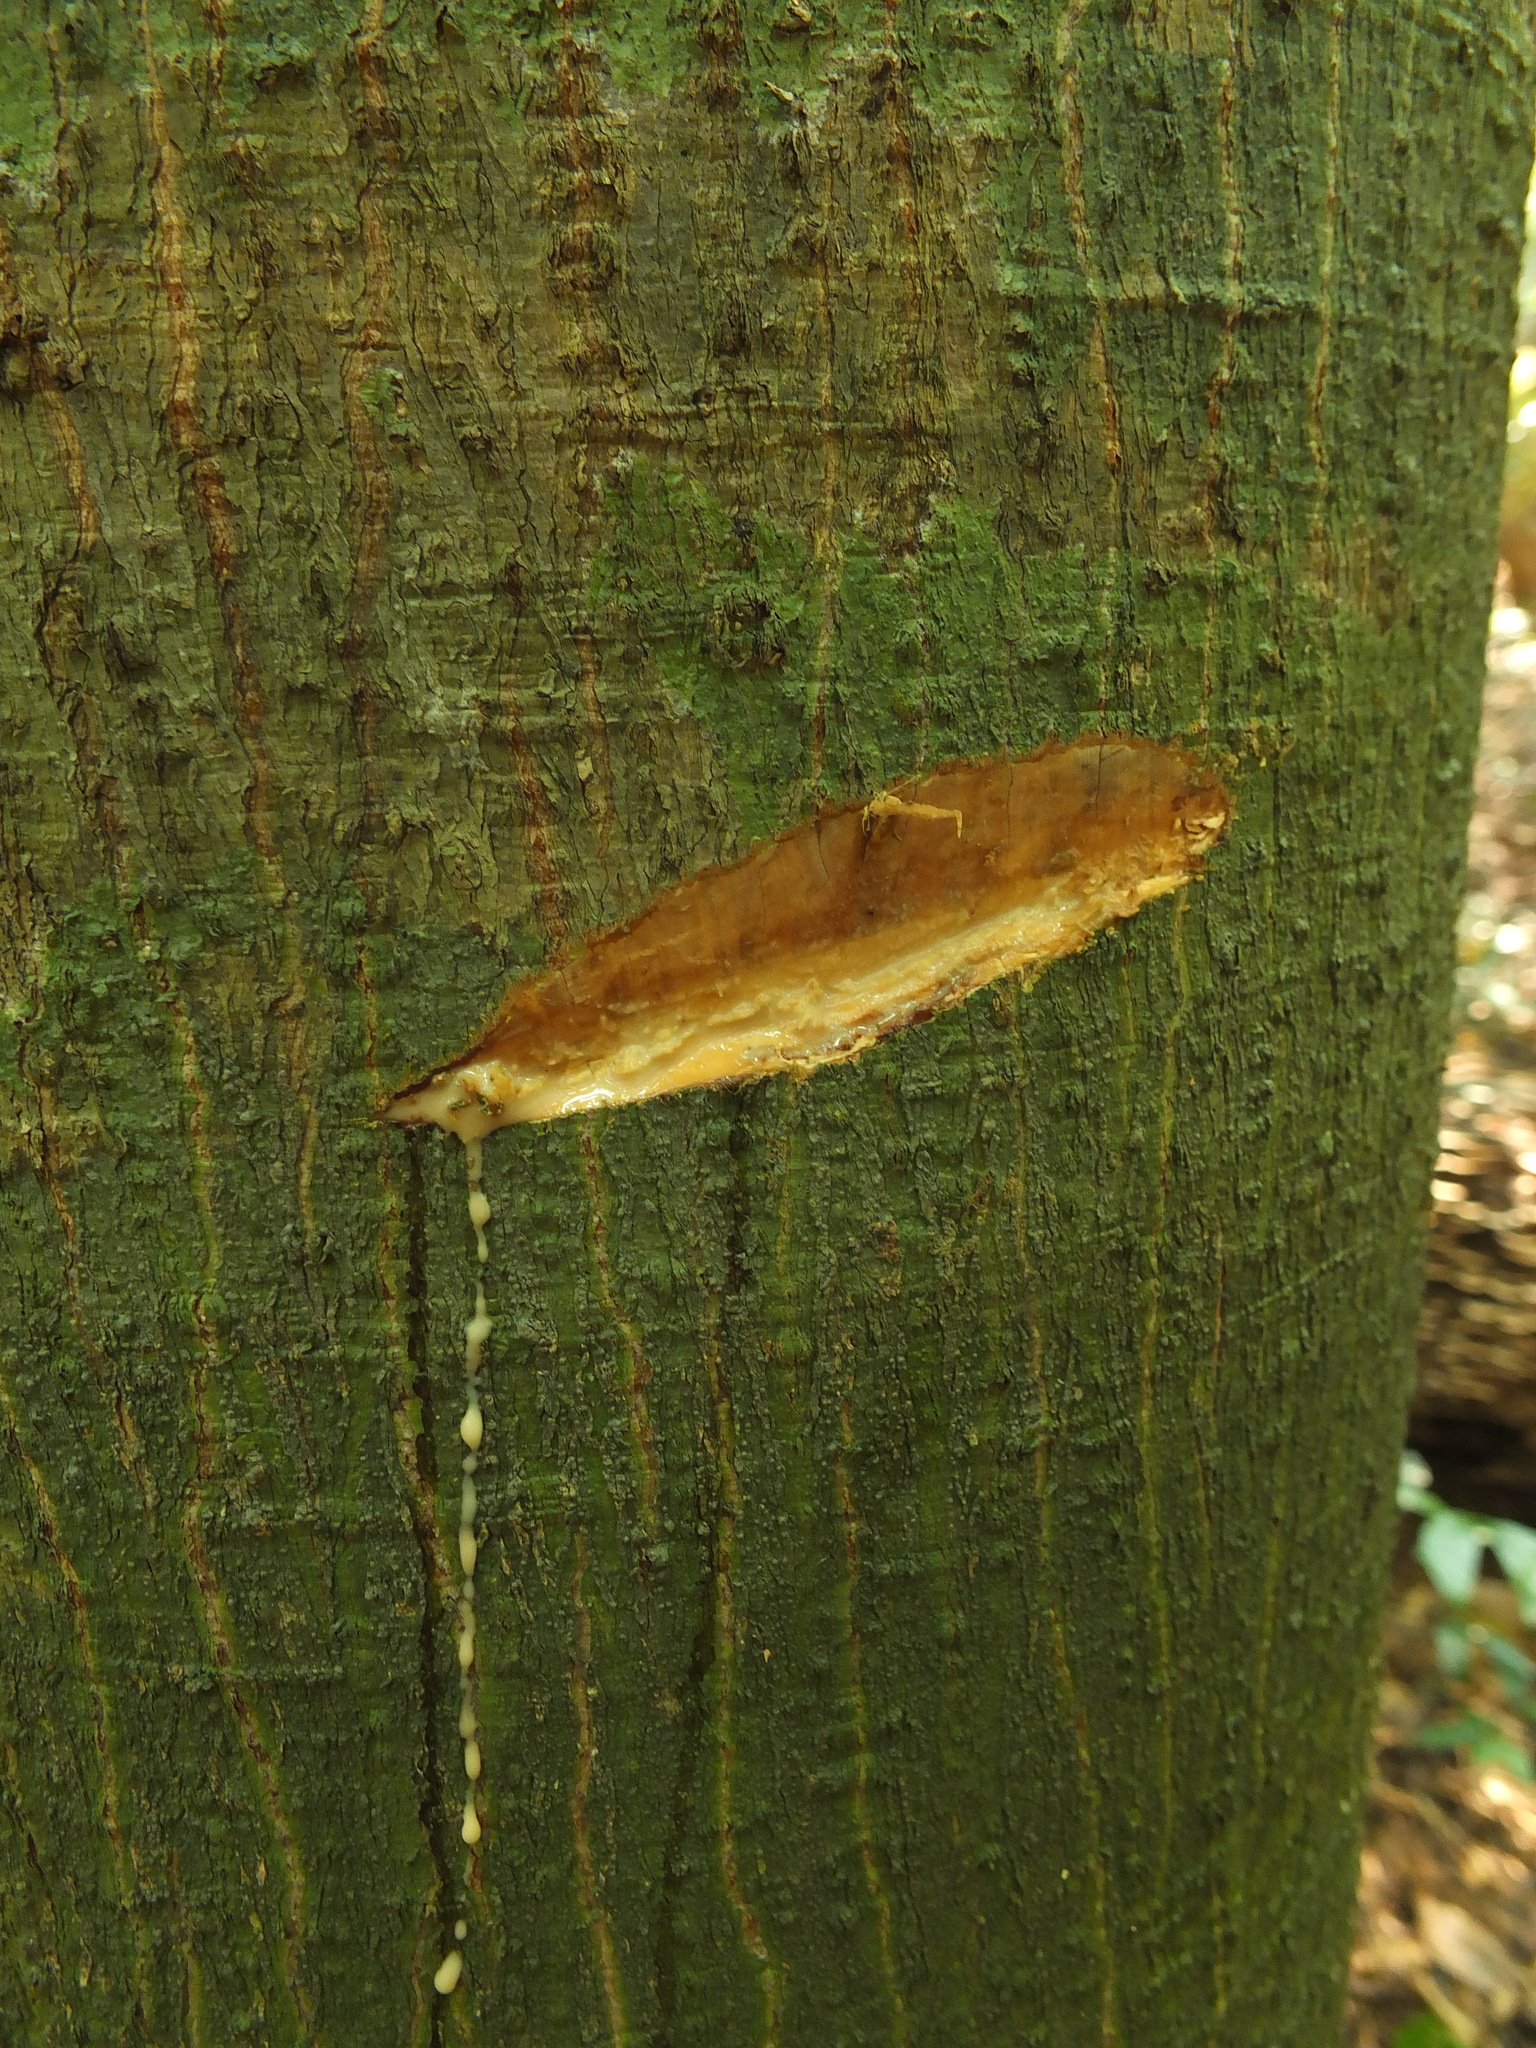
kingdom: Plantae
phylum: Tracheophyta
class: Magnoliopsida
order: Rosales
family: Moraceae
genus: Antiaris
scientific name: Antiaris toxicaria
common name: Sackingtree
